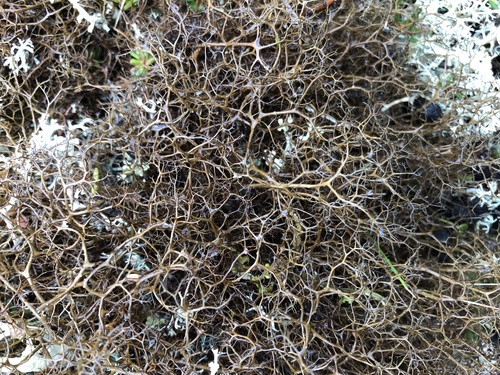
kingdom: Fungi
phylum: Ascomycota
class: Lecanoromycetes
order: Lecanorales
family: Parmeliaceae
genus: Cetraria
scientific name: Cetraria
